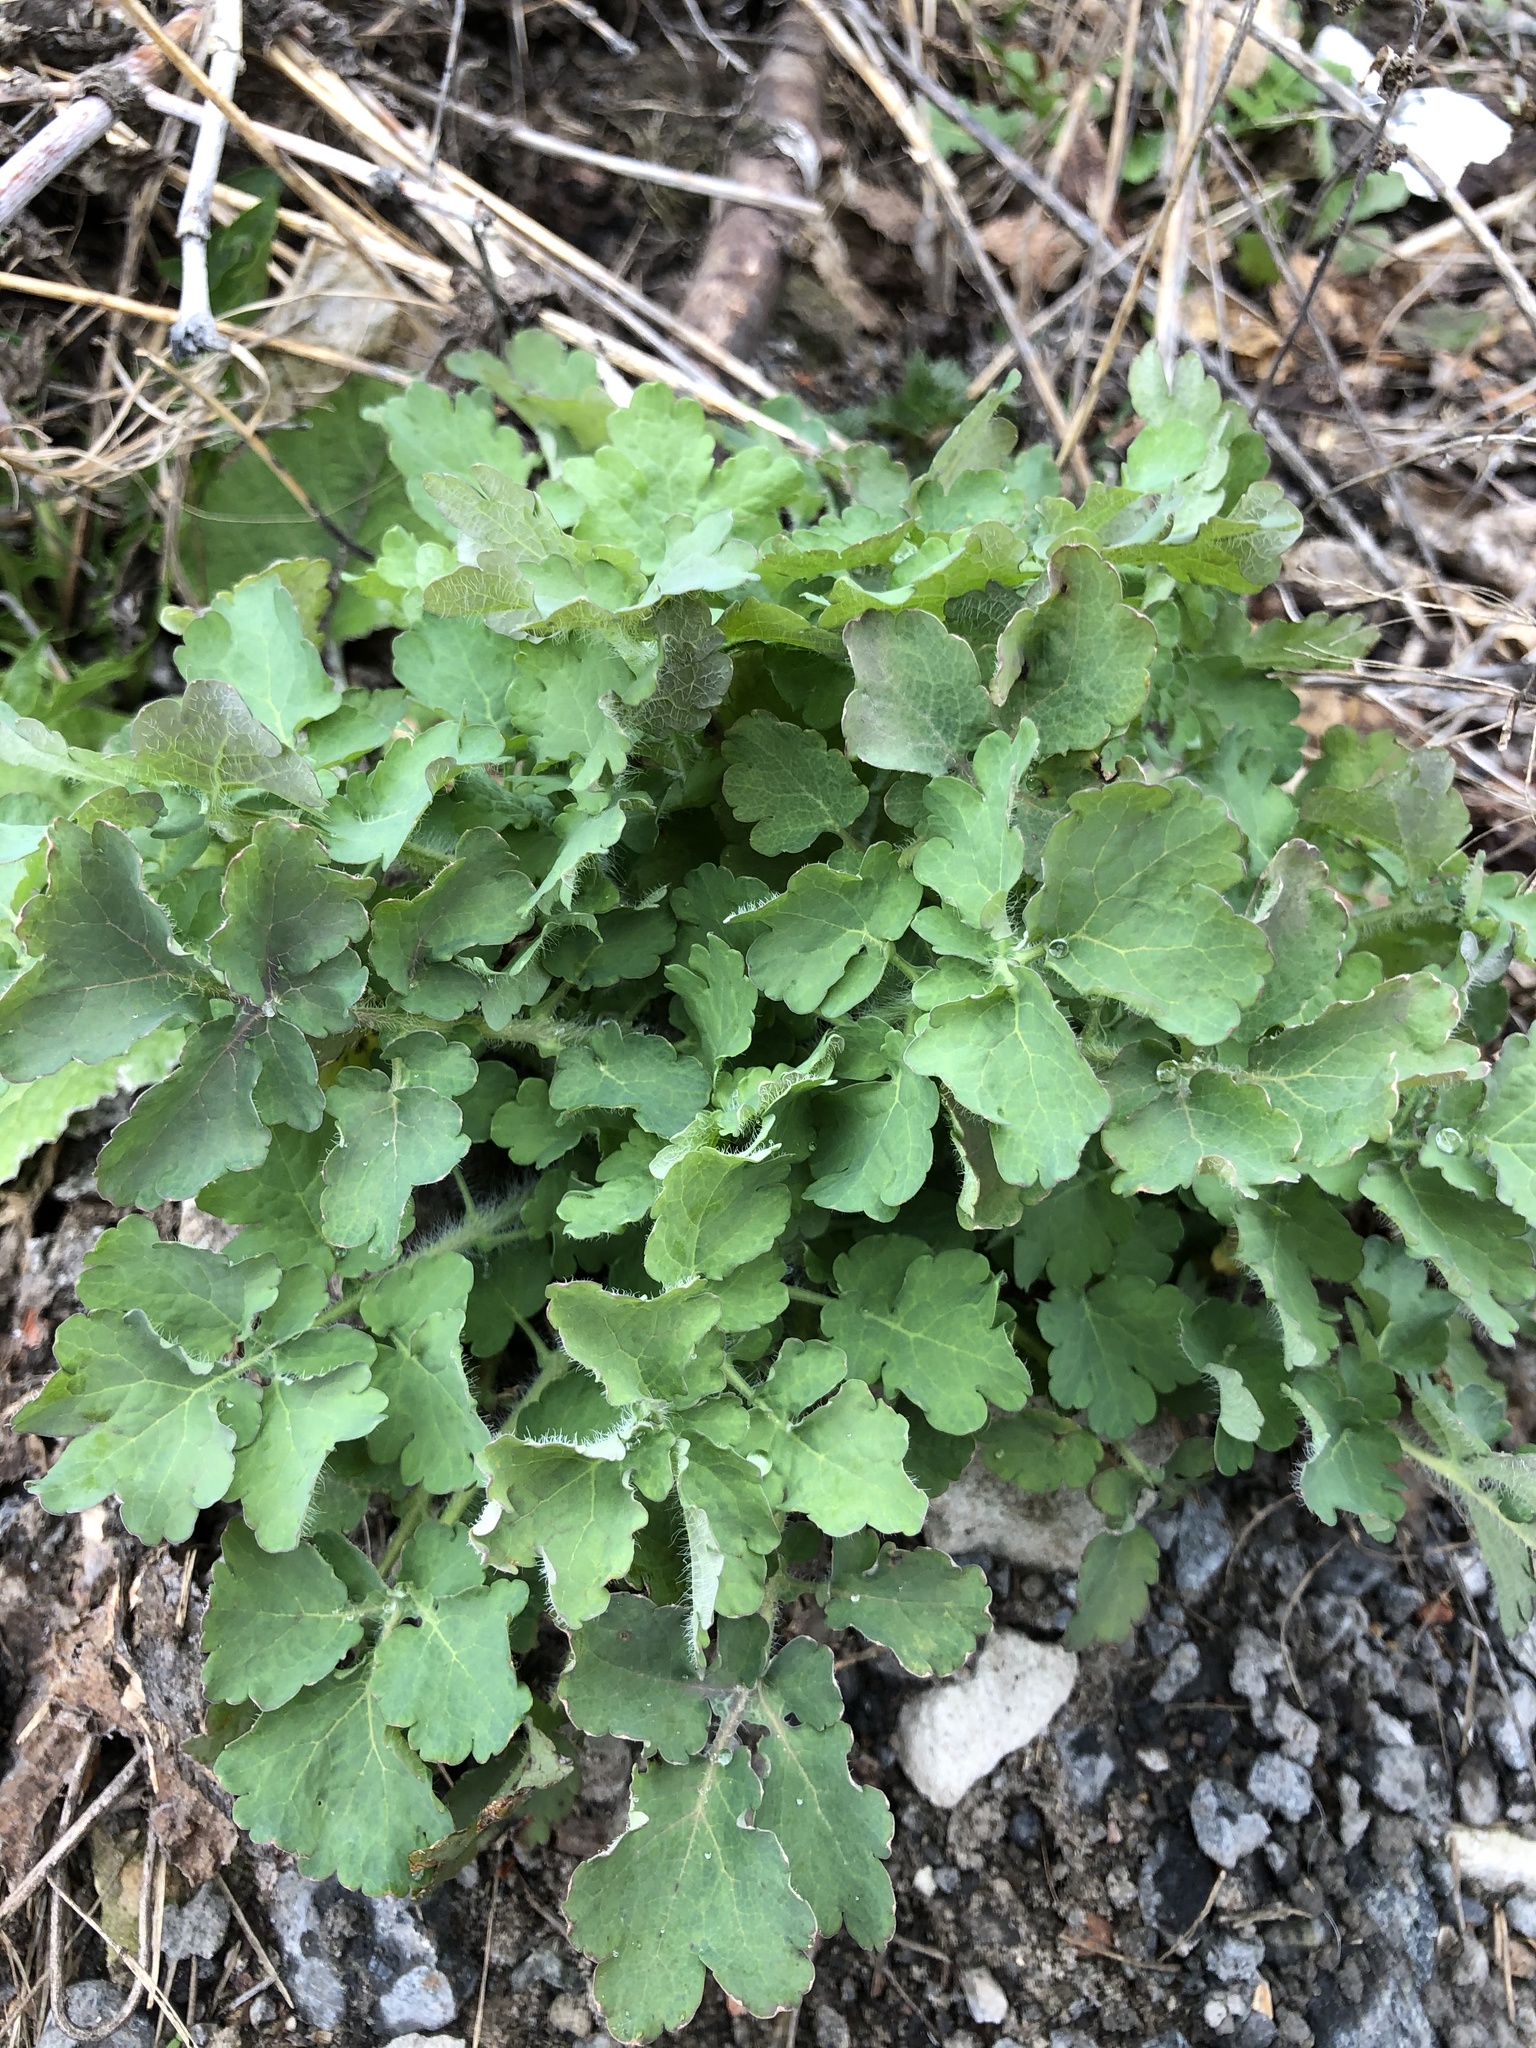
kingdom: Plantae
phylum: Tracheophyta
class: Magnoliopsida
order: Ranunculales
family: Papaveraceae
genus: Chelidonium
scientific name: Chelidonium majus
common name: Greater celandine
